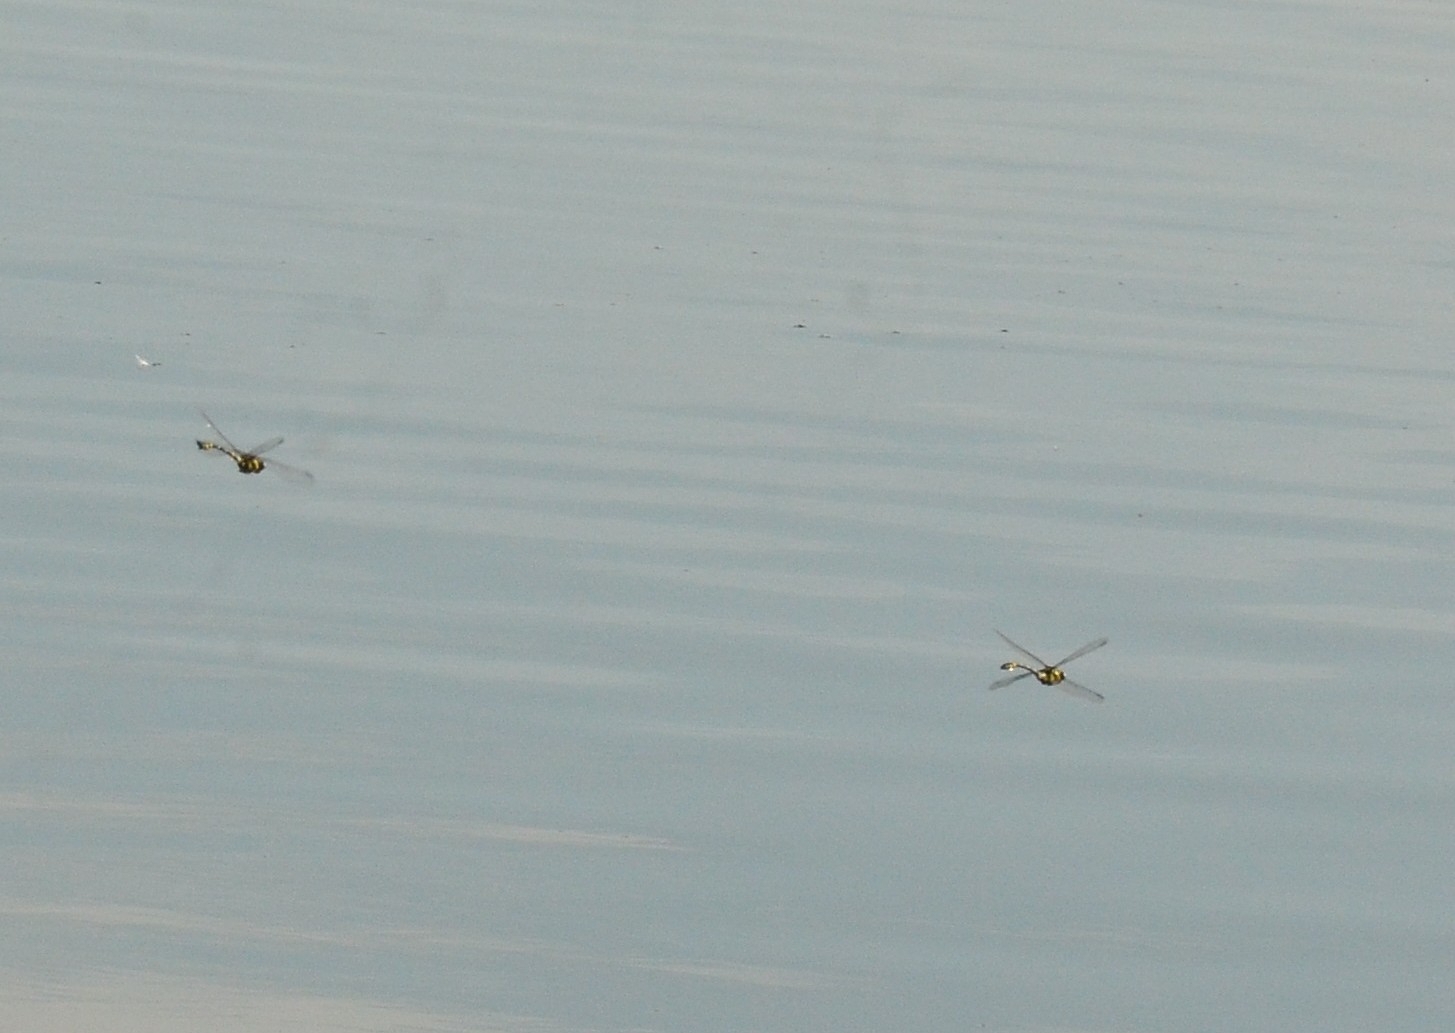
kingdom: Animalia
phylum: Arthropoda
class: Insecta
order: Odonata
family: Gomphidae
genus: Ictinogomphus
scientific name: Ictinogomphus rapax
